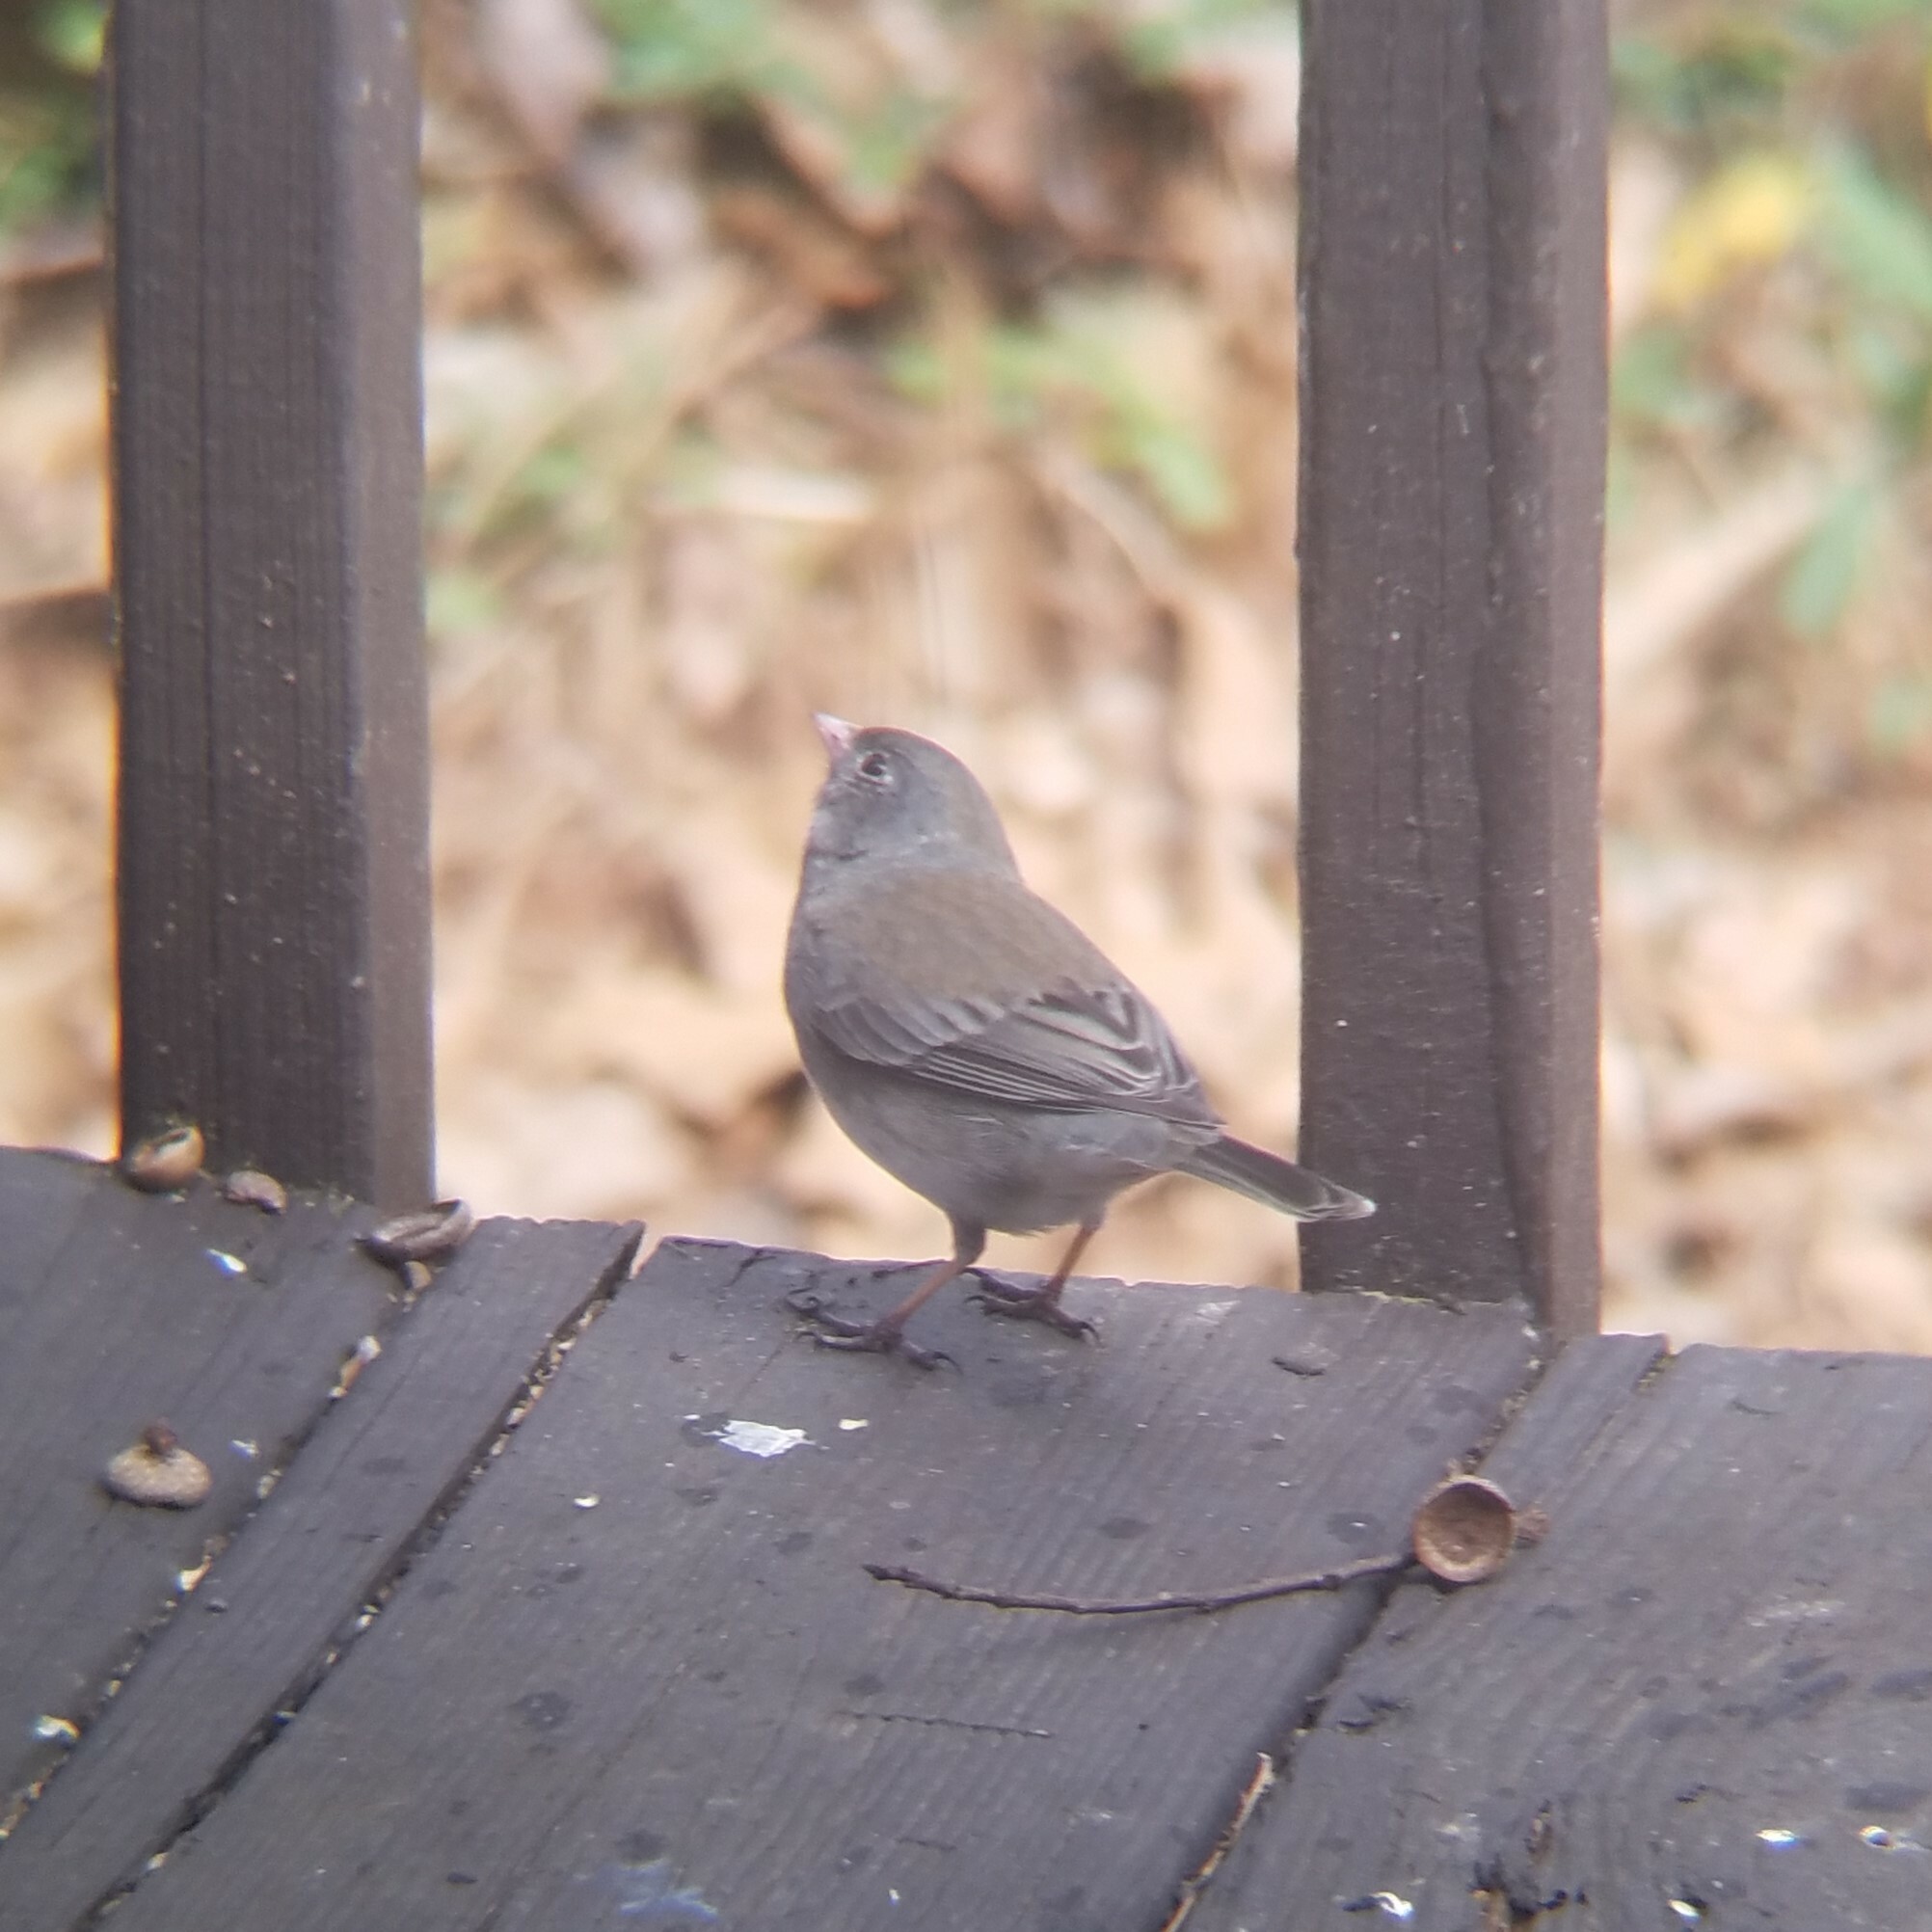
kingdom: Animalia
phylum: Chordata
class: Aves
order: Passeriformes
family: Passerellidae
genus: Junco
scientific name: Junco hyemalis
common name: Dark-eyed junco
